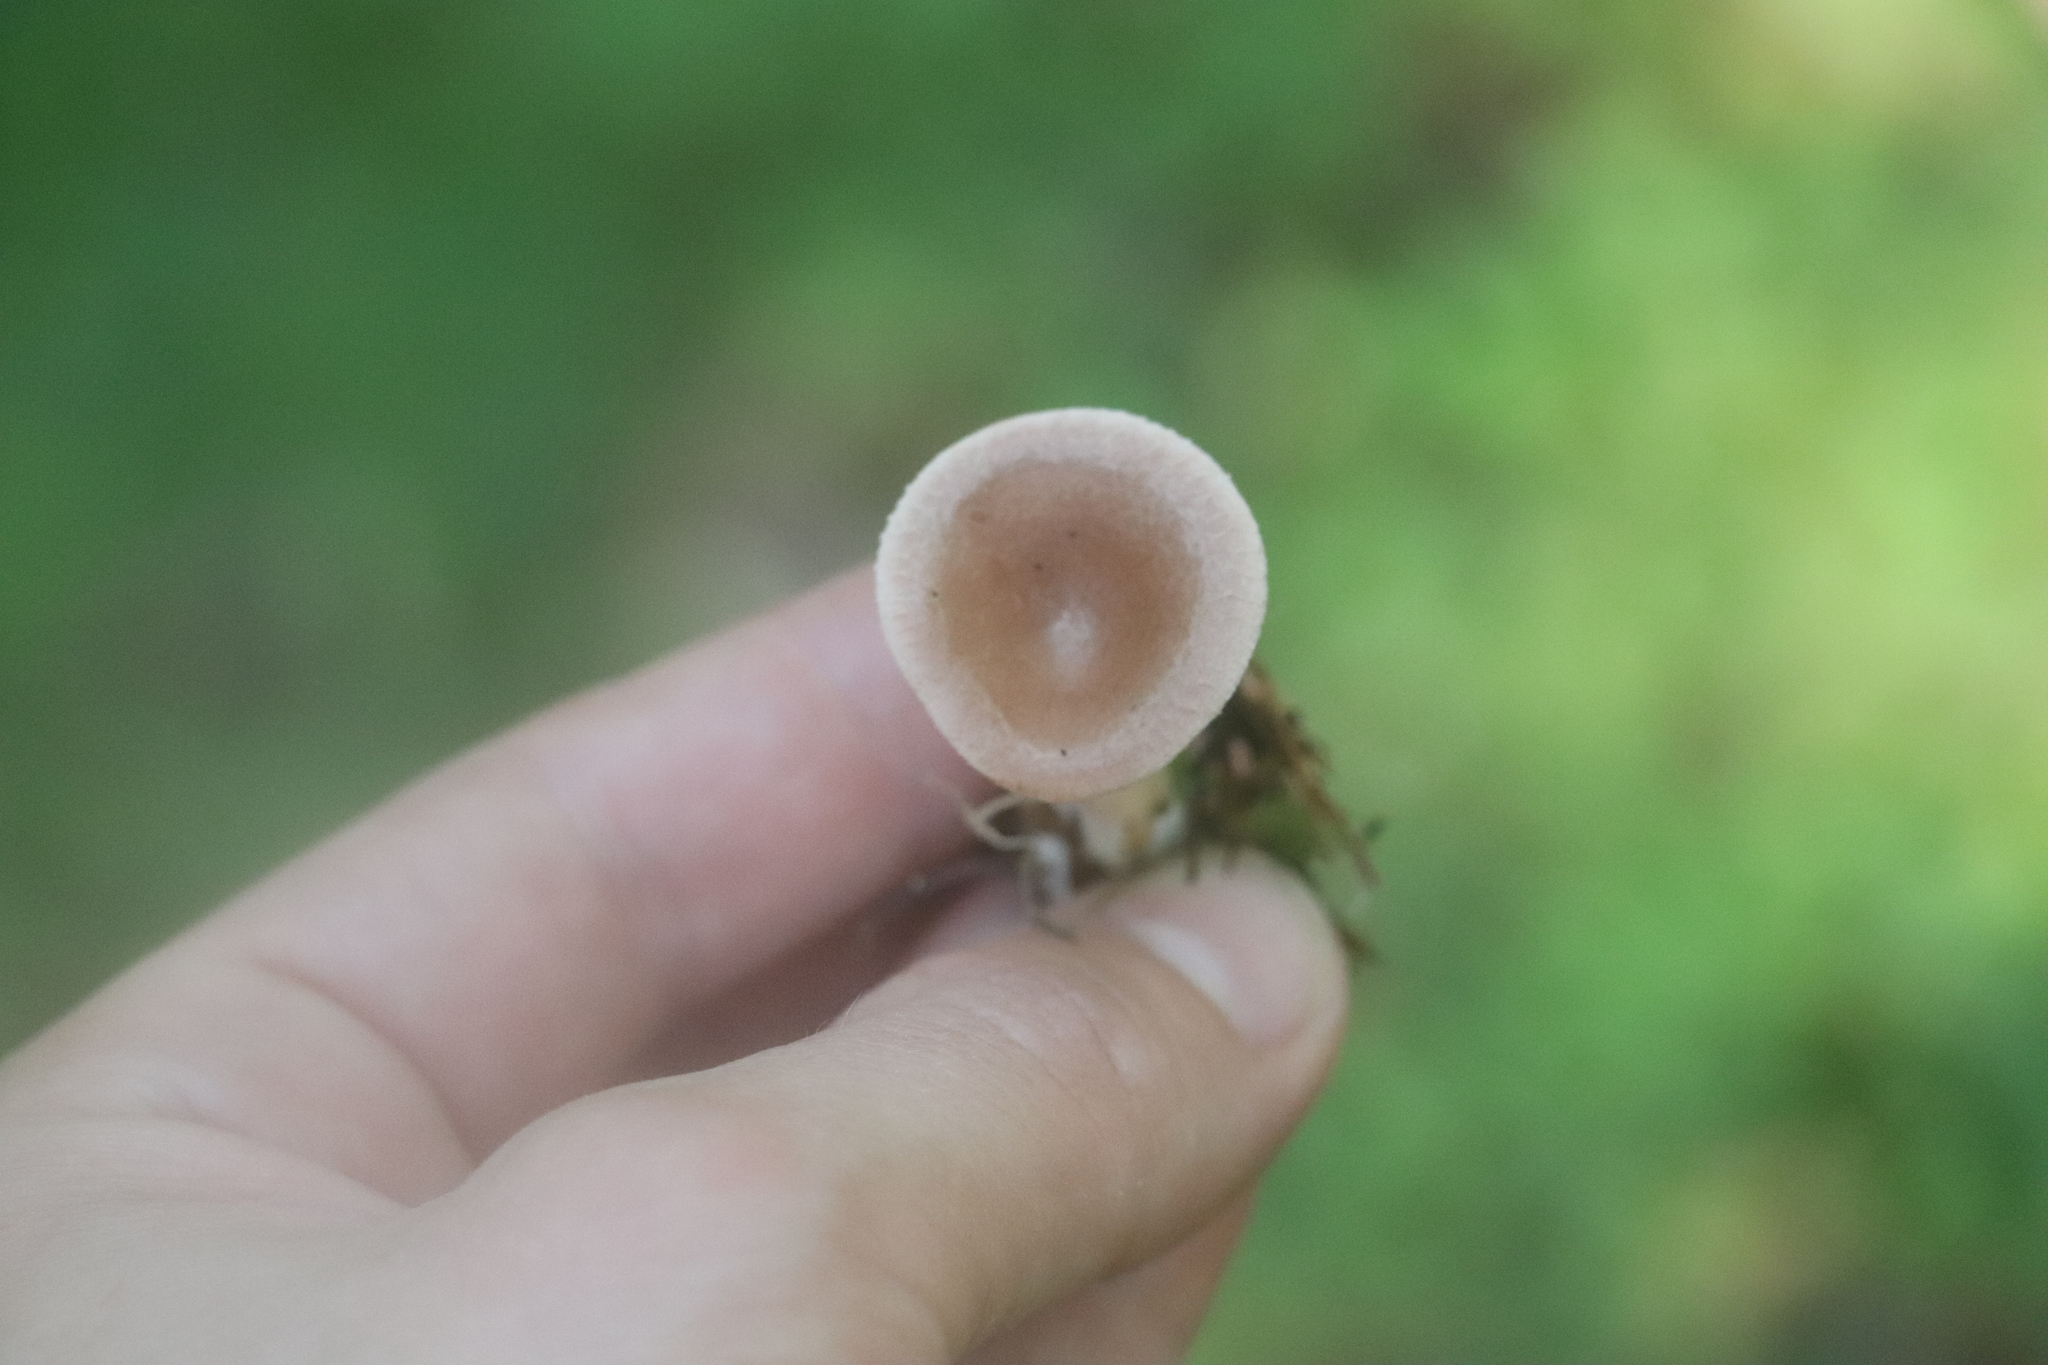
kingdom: Fungi
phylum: Basidiomycota
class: Agaricomycetes
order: Agaricales
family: Tricholomataceae
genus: Infundibulicybe
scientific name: Infundibulicybe gibba
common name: Common funnel
